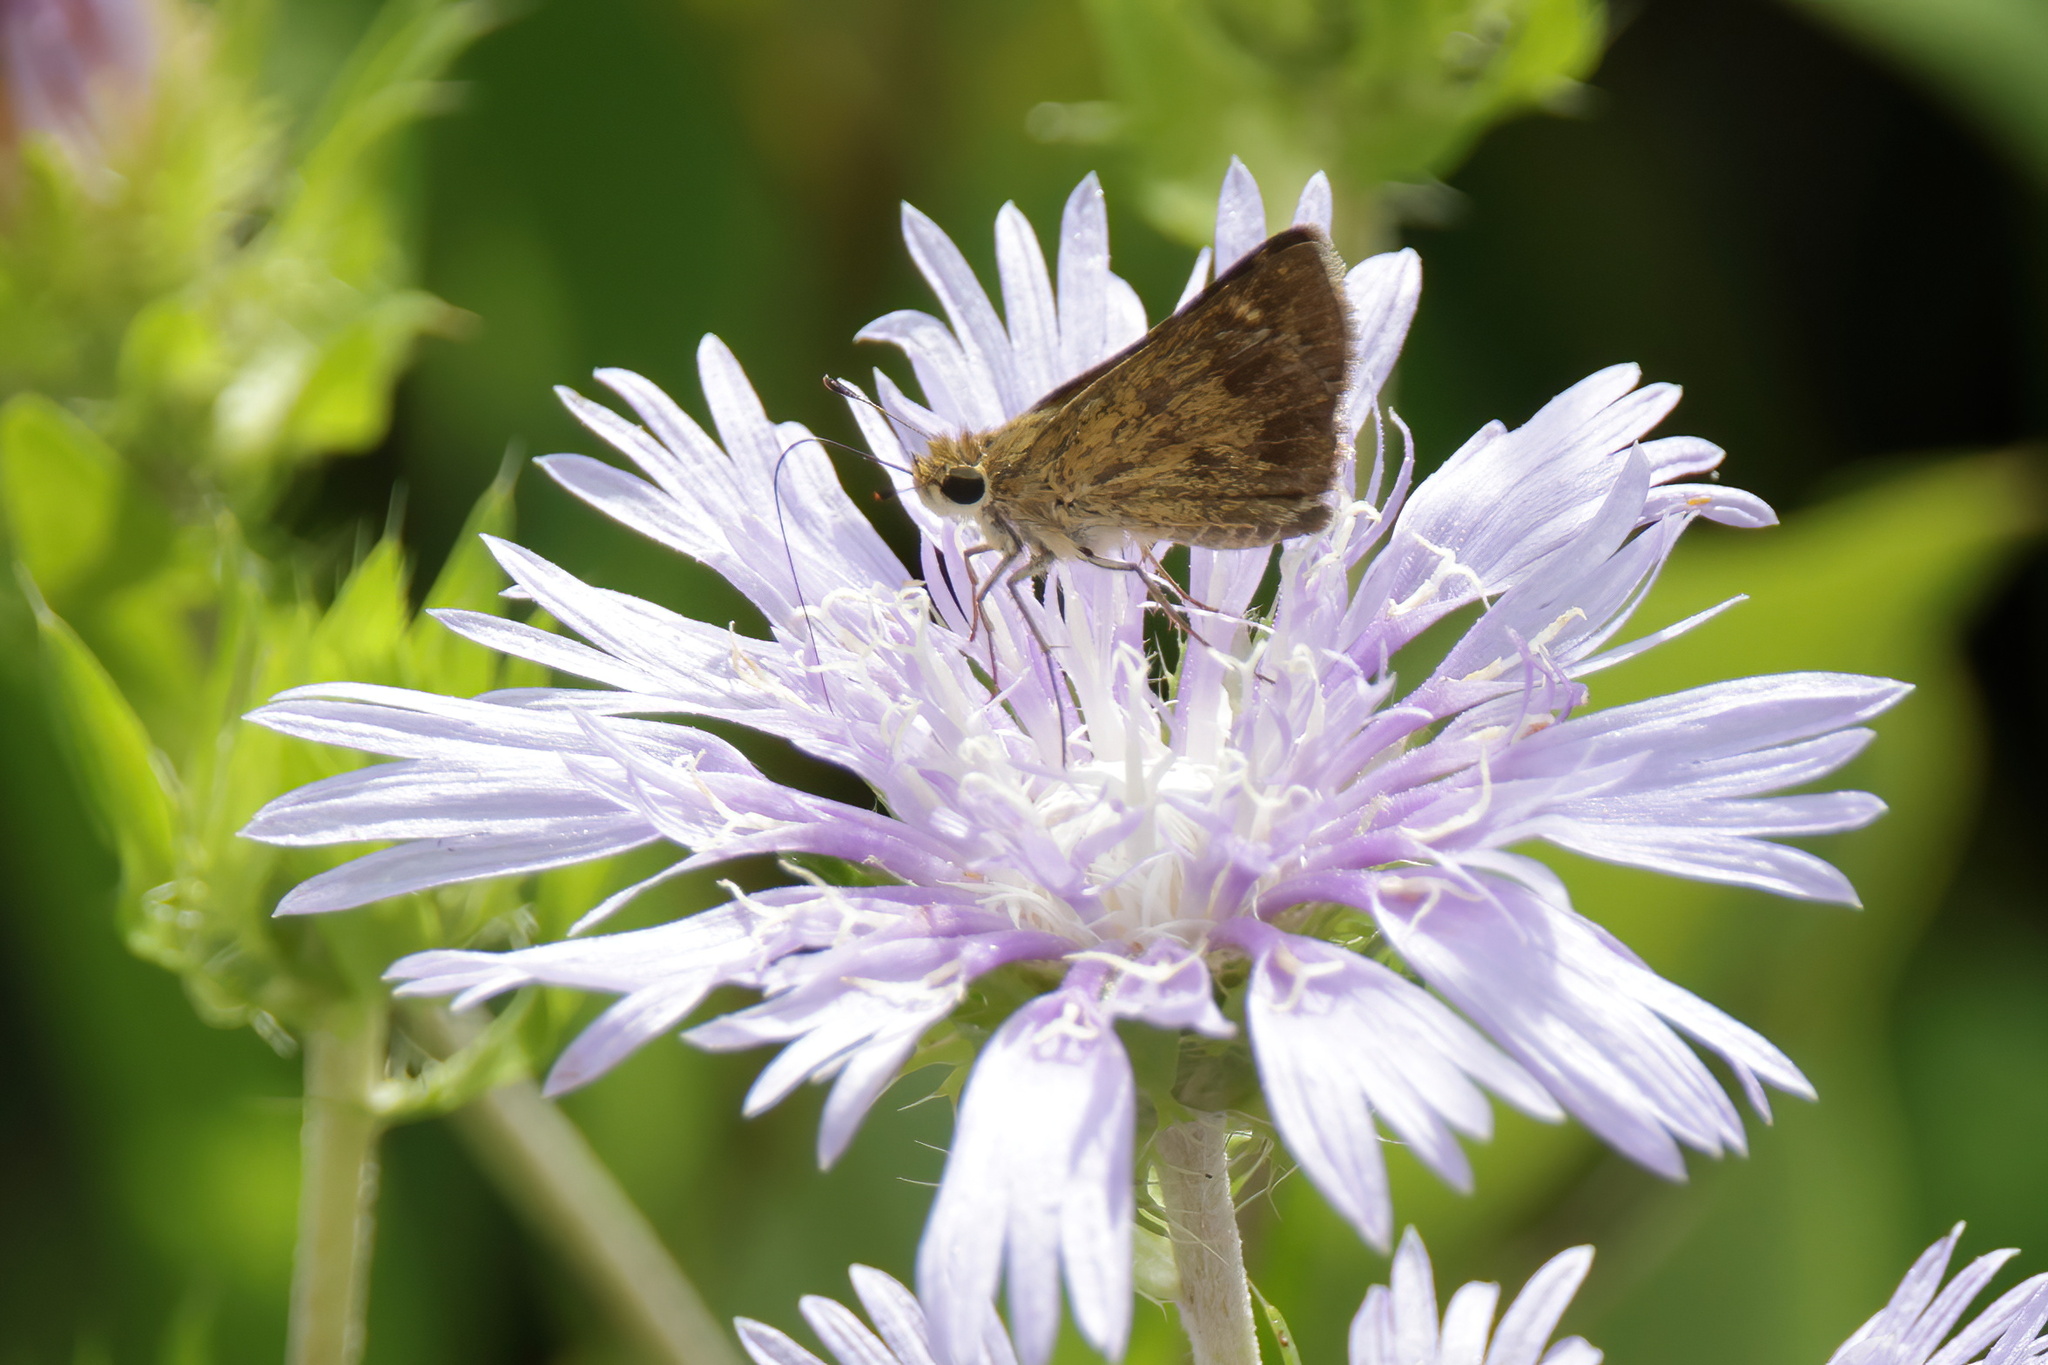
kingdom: Animalia
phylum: Arthropoda
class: Insecta
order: Lepidoptera
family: Hesperiidae
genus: Polites
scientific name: Polites vibex
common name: Whirlabout
